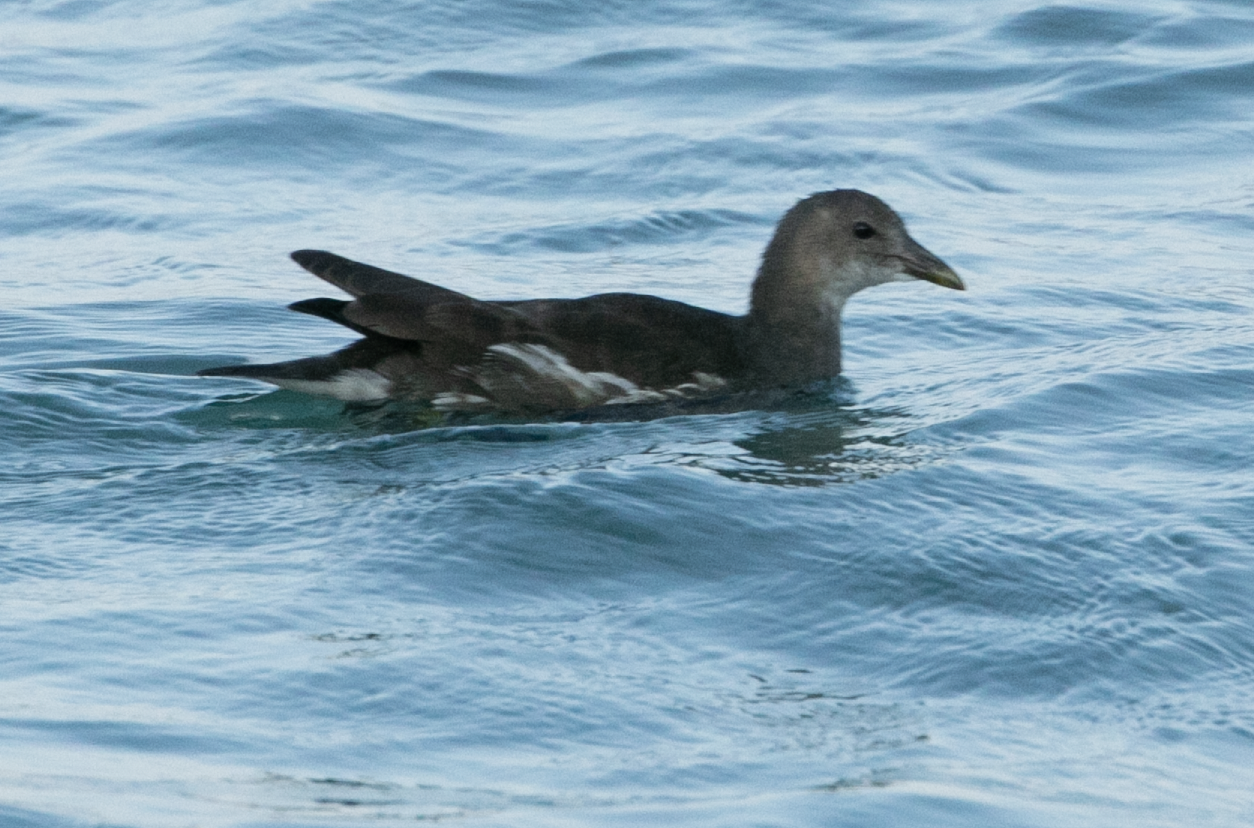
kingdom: Animalia
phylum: Chordata
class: Aves
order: Gruiformes
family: Rallidae
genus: Gallinula
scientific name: Gallinula chloropus
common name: Common moorhen
